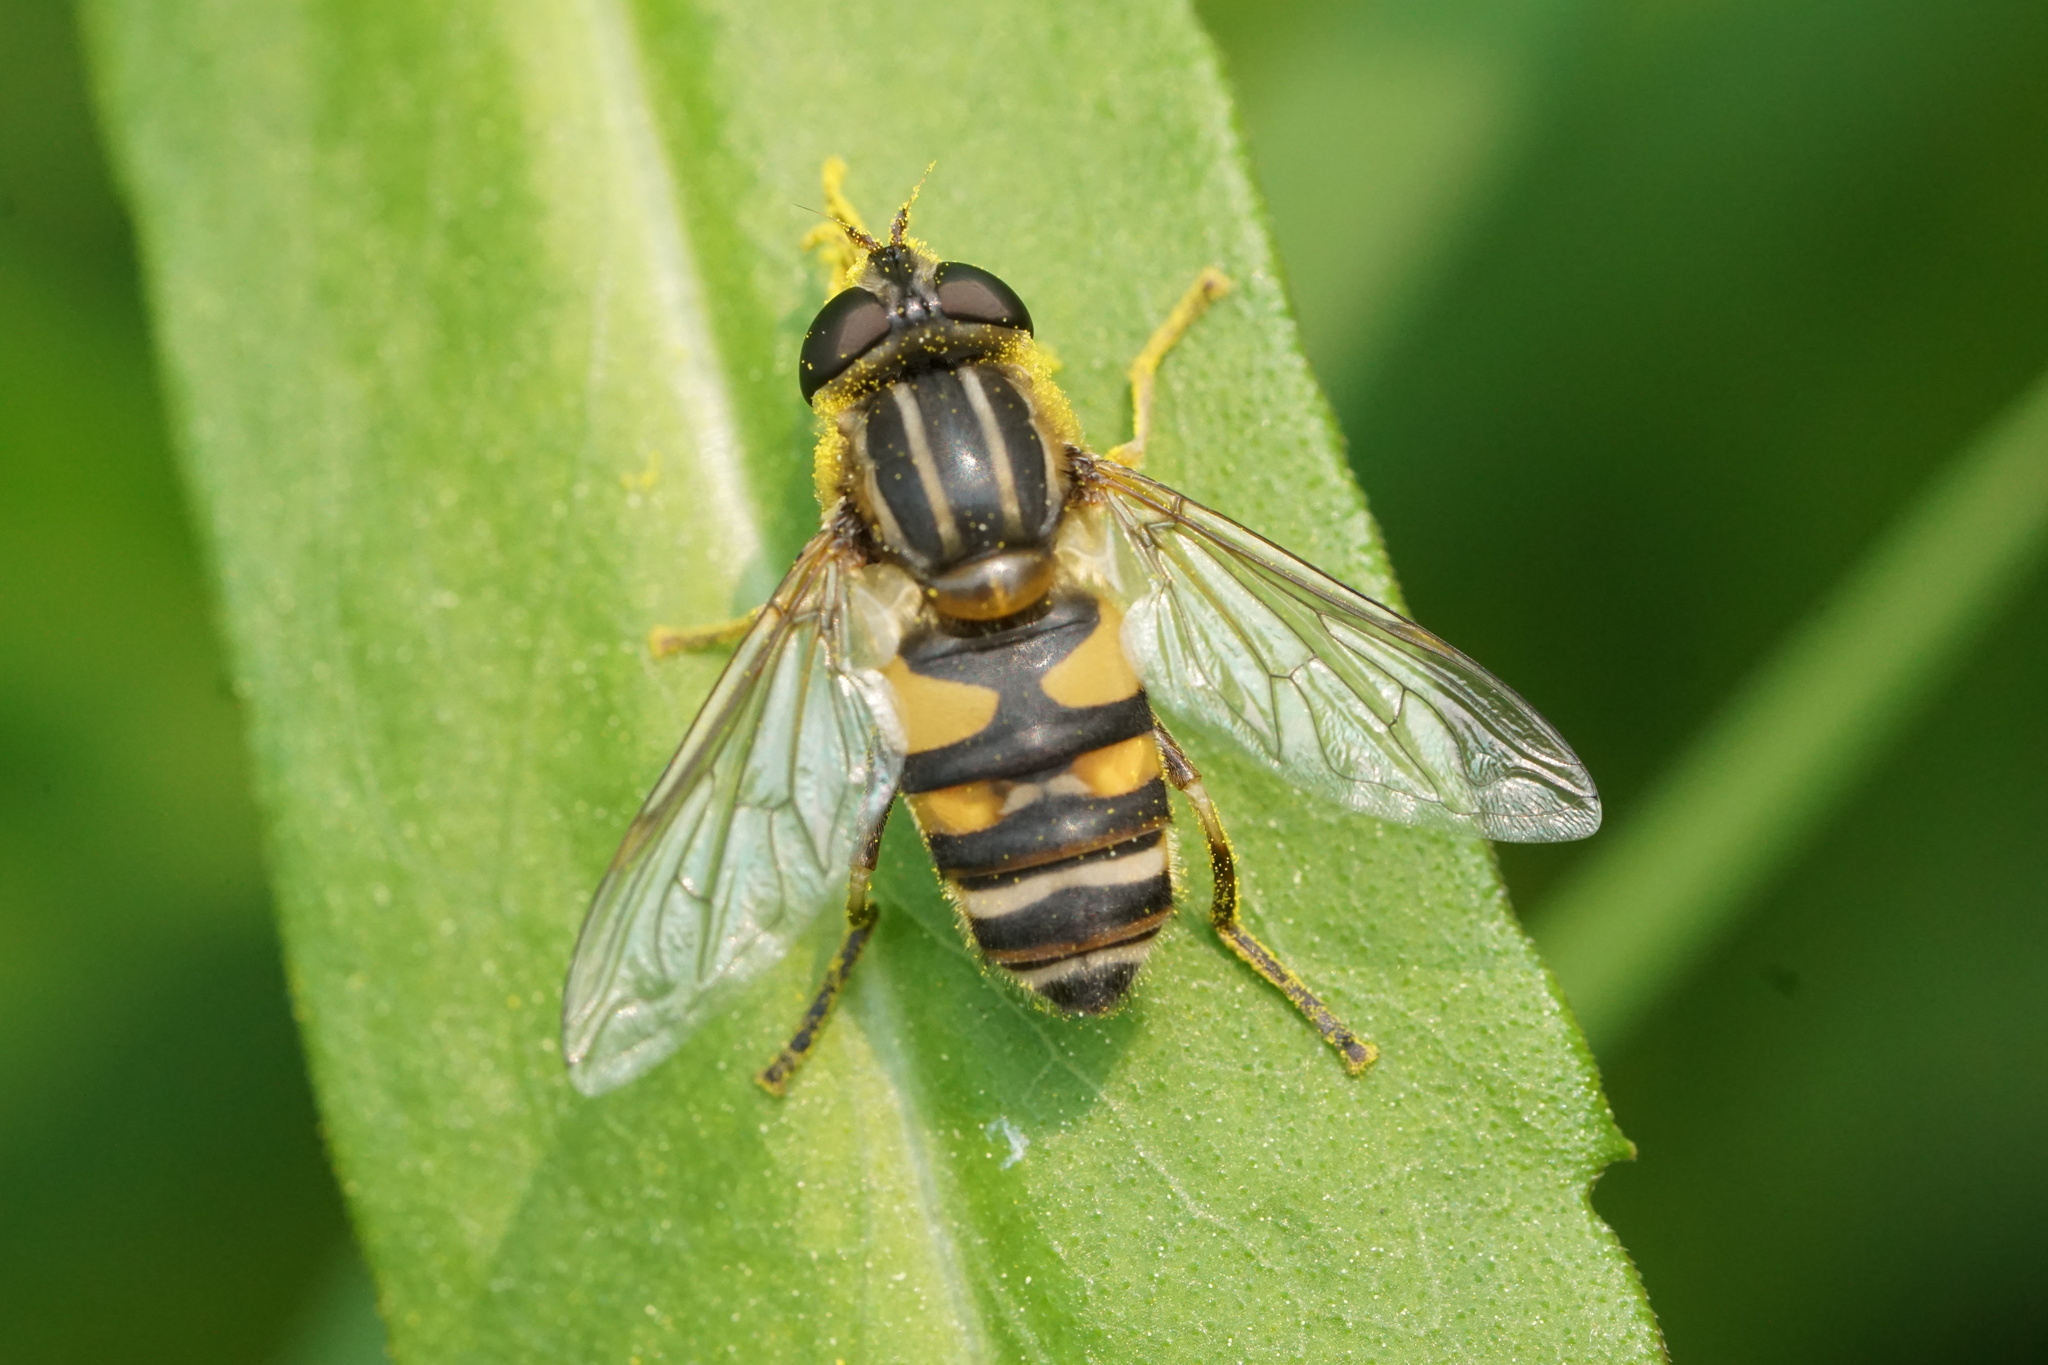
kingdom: Animalia
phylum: Arthropoda
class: Insecta
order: Diptera
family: Syrphidae
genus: Helophilus
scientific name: Helophilus fasciatus
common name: Narrow-headed marsh fly
